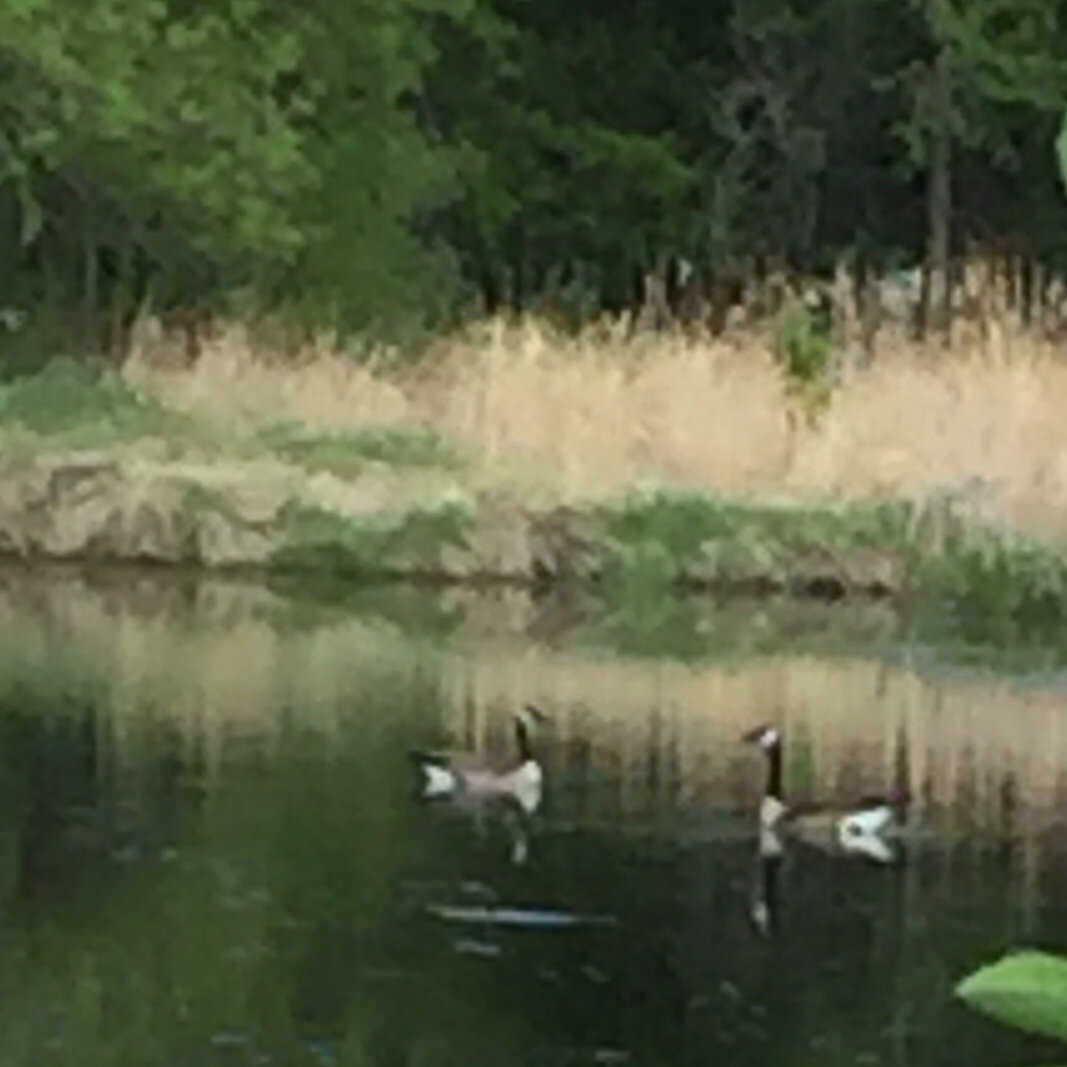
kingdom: Animalia
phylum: Chordata
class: Aves
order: Anseriformes
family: Anatidae
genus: Branta
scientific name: Branta canadensis
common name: Canada goose
